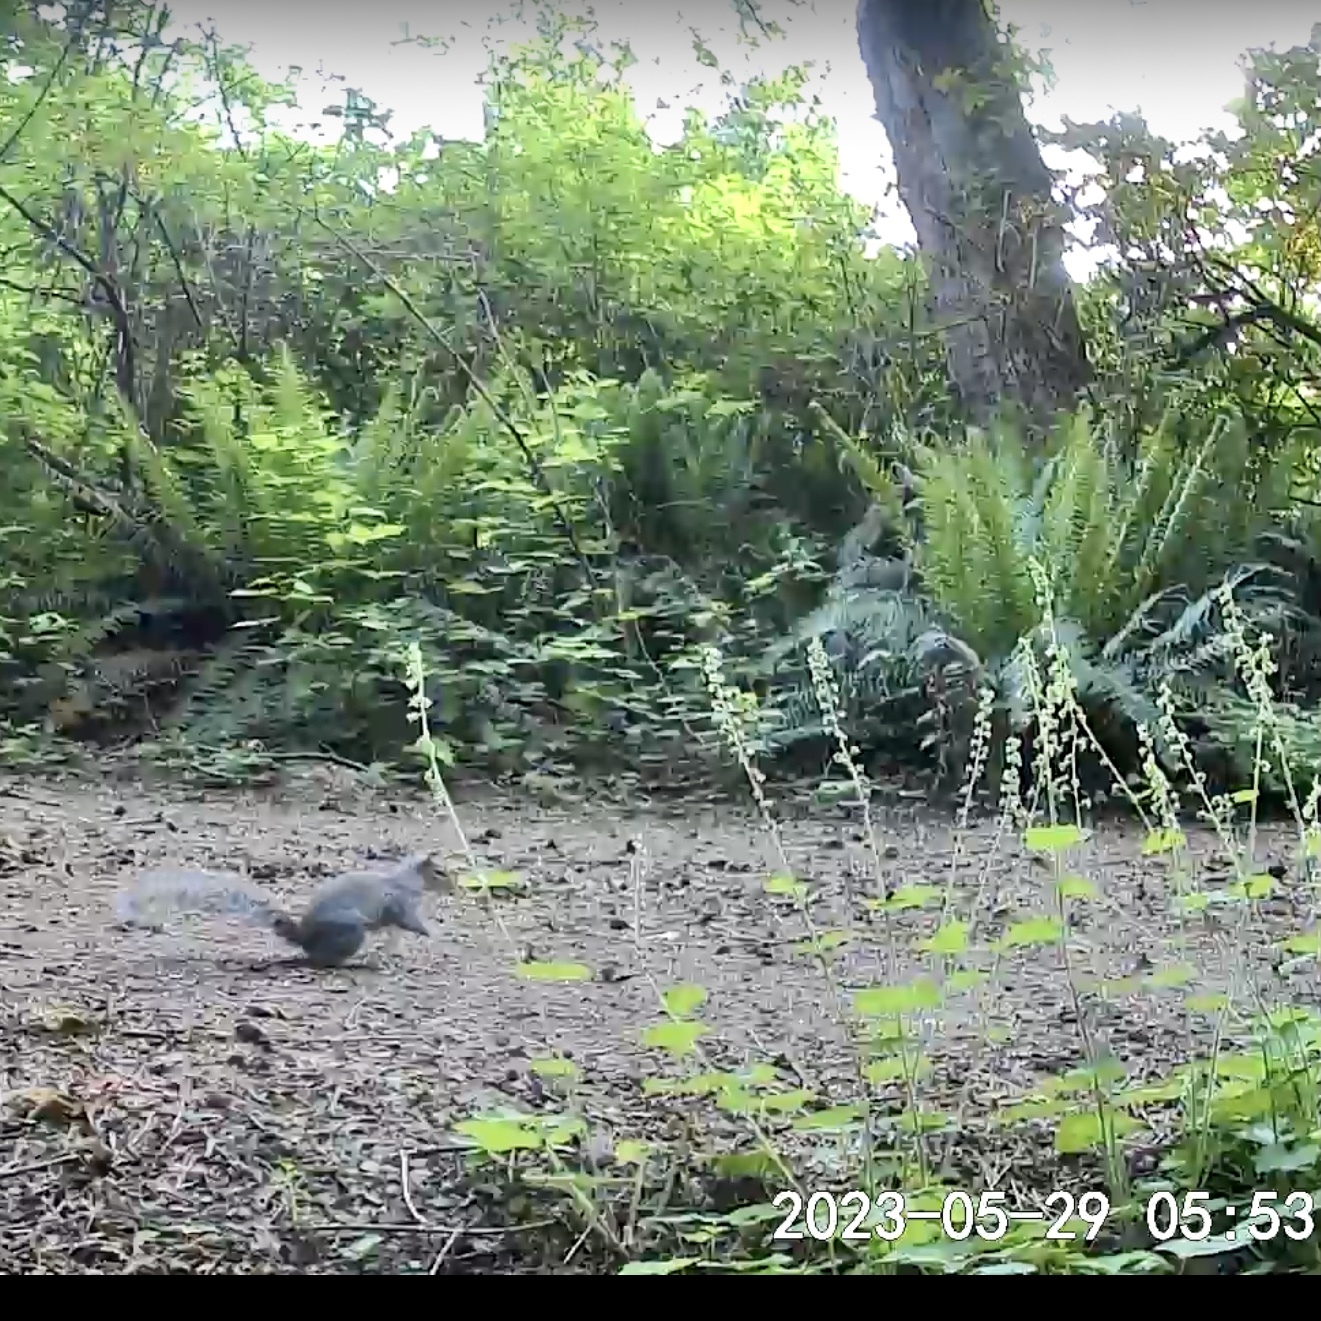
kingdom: Animalia
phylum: Chordata
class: Mammalia
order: Rodentia
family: Sciuridae
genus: Sciurus
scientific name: Sciurus carolinensis
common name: Eastern gray squirrel
